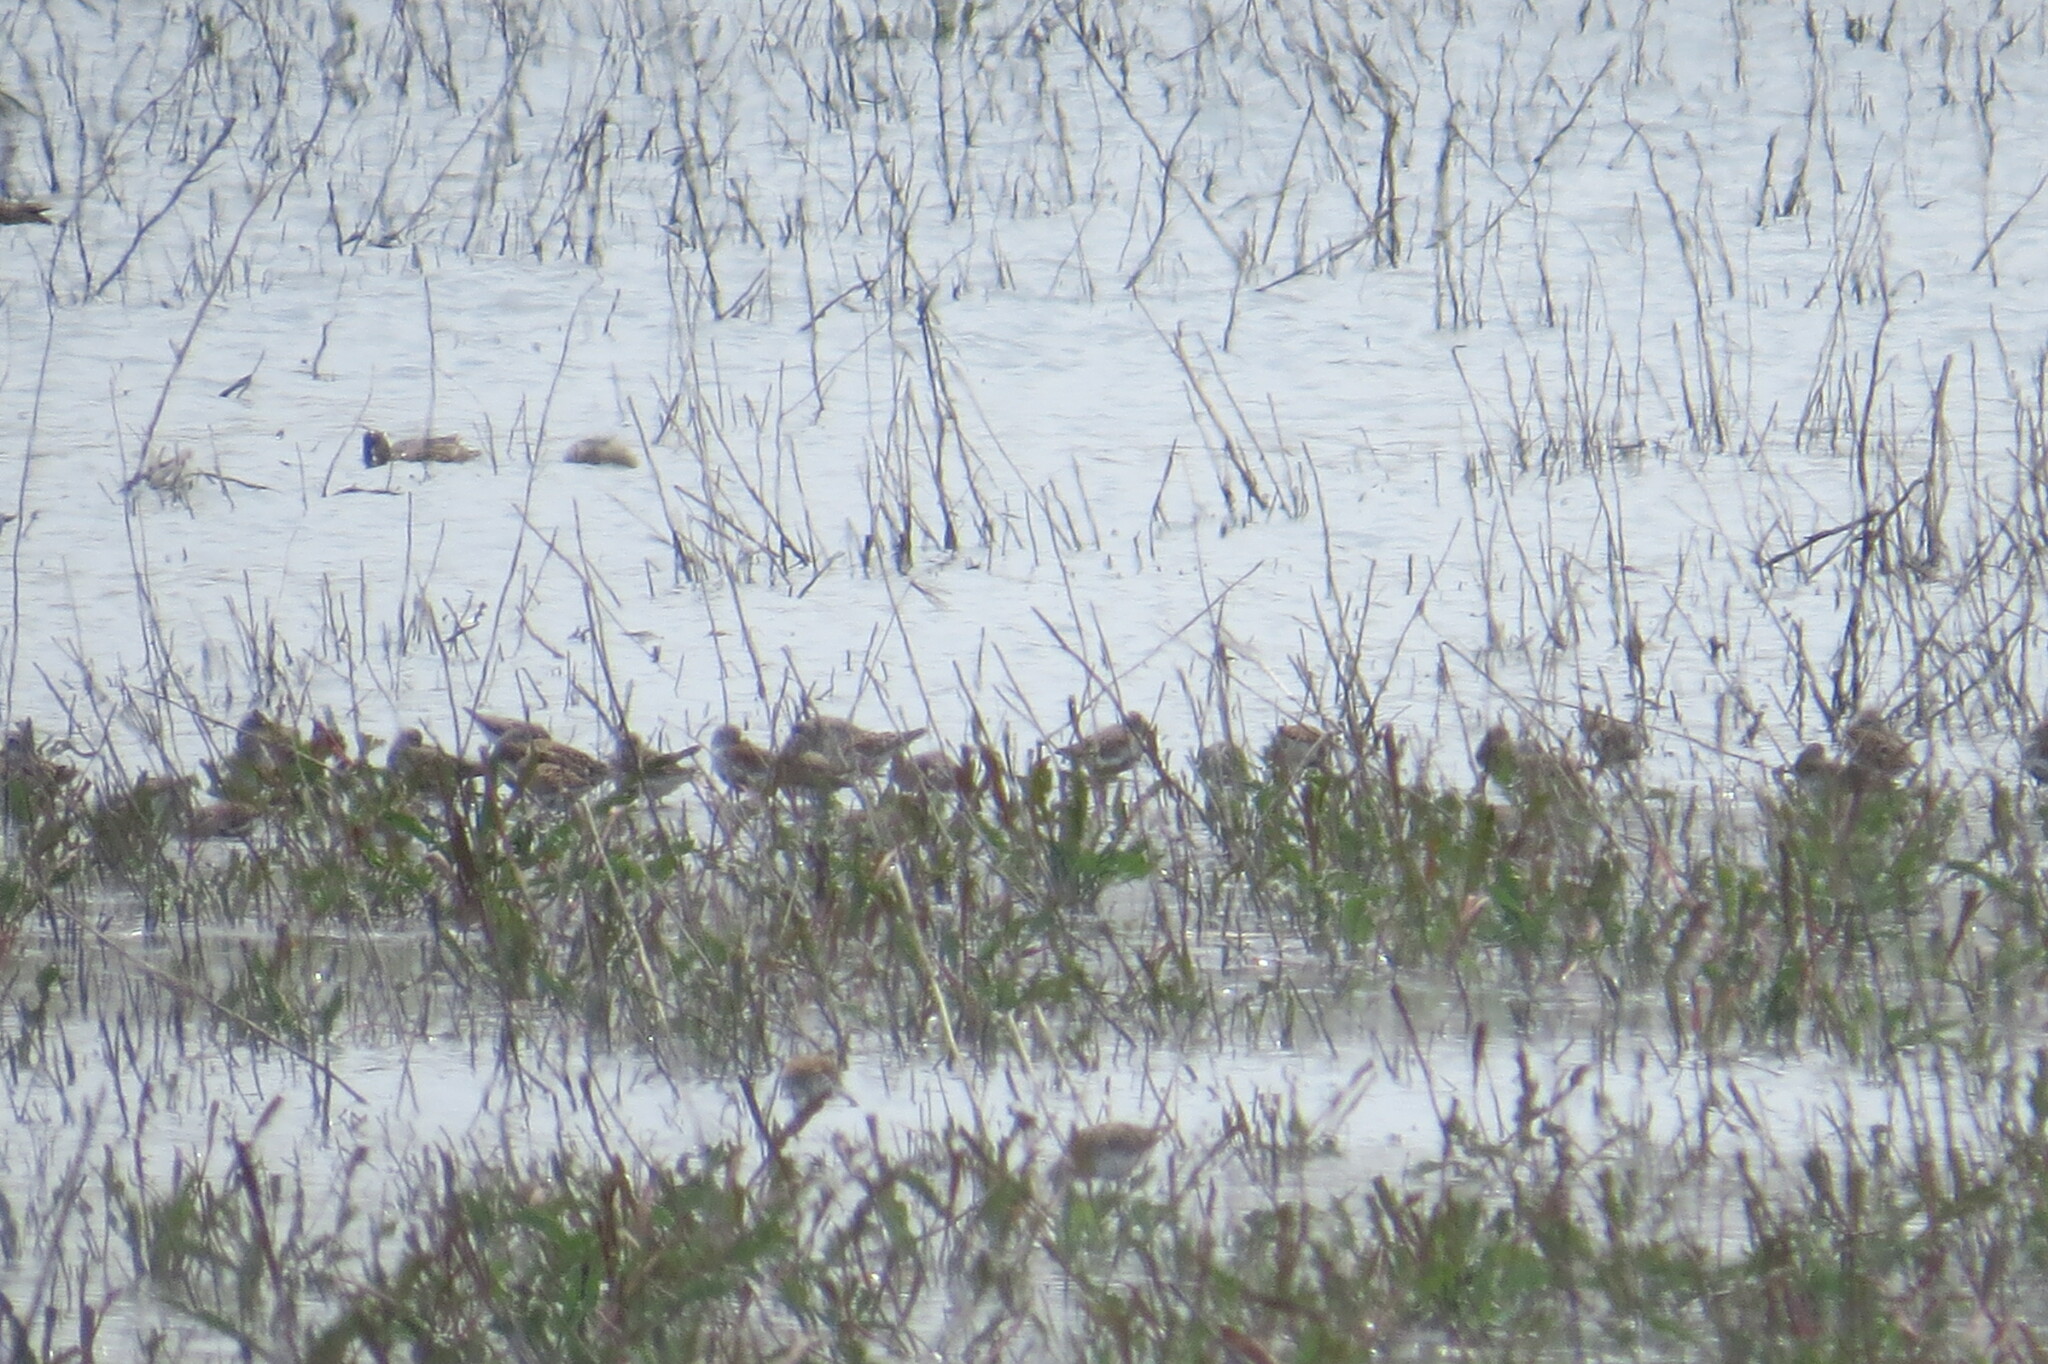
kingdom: Animalia
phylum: Chordata
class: Aves
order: Charadriiformes
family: Scolopacidae
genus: Calidris
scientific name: Calidris alpina
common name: Dunlin
